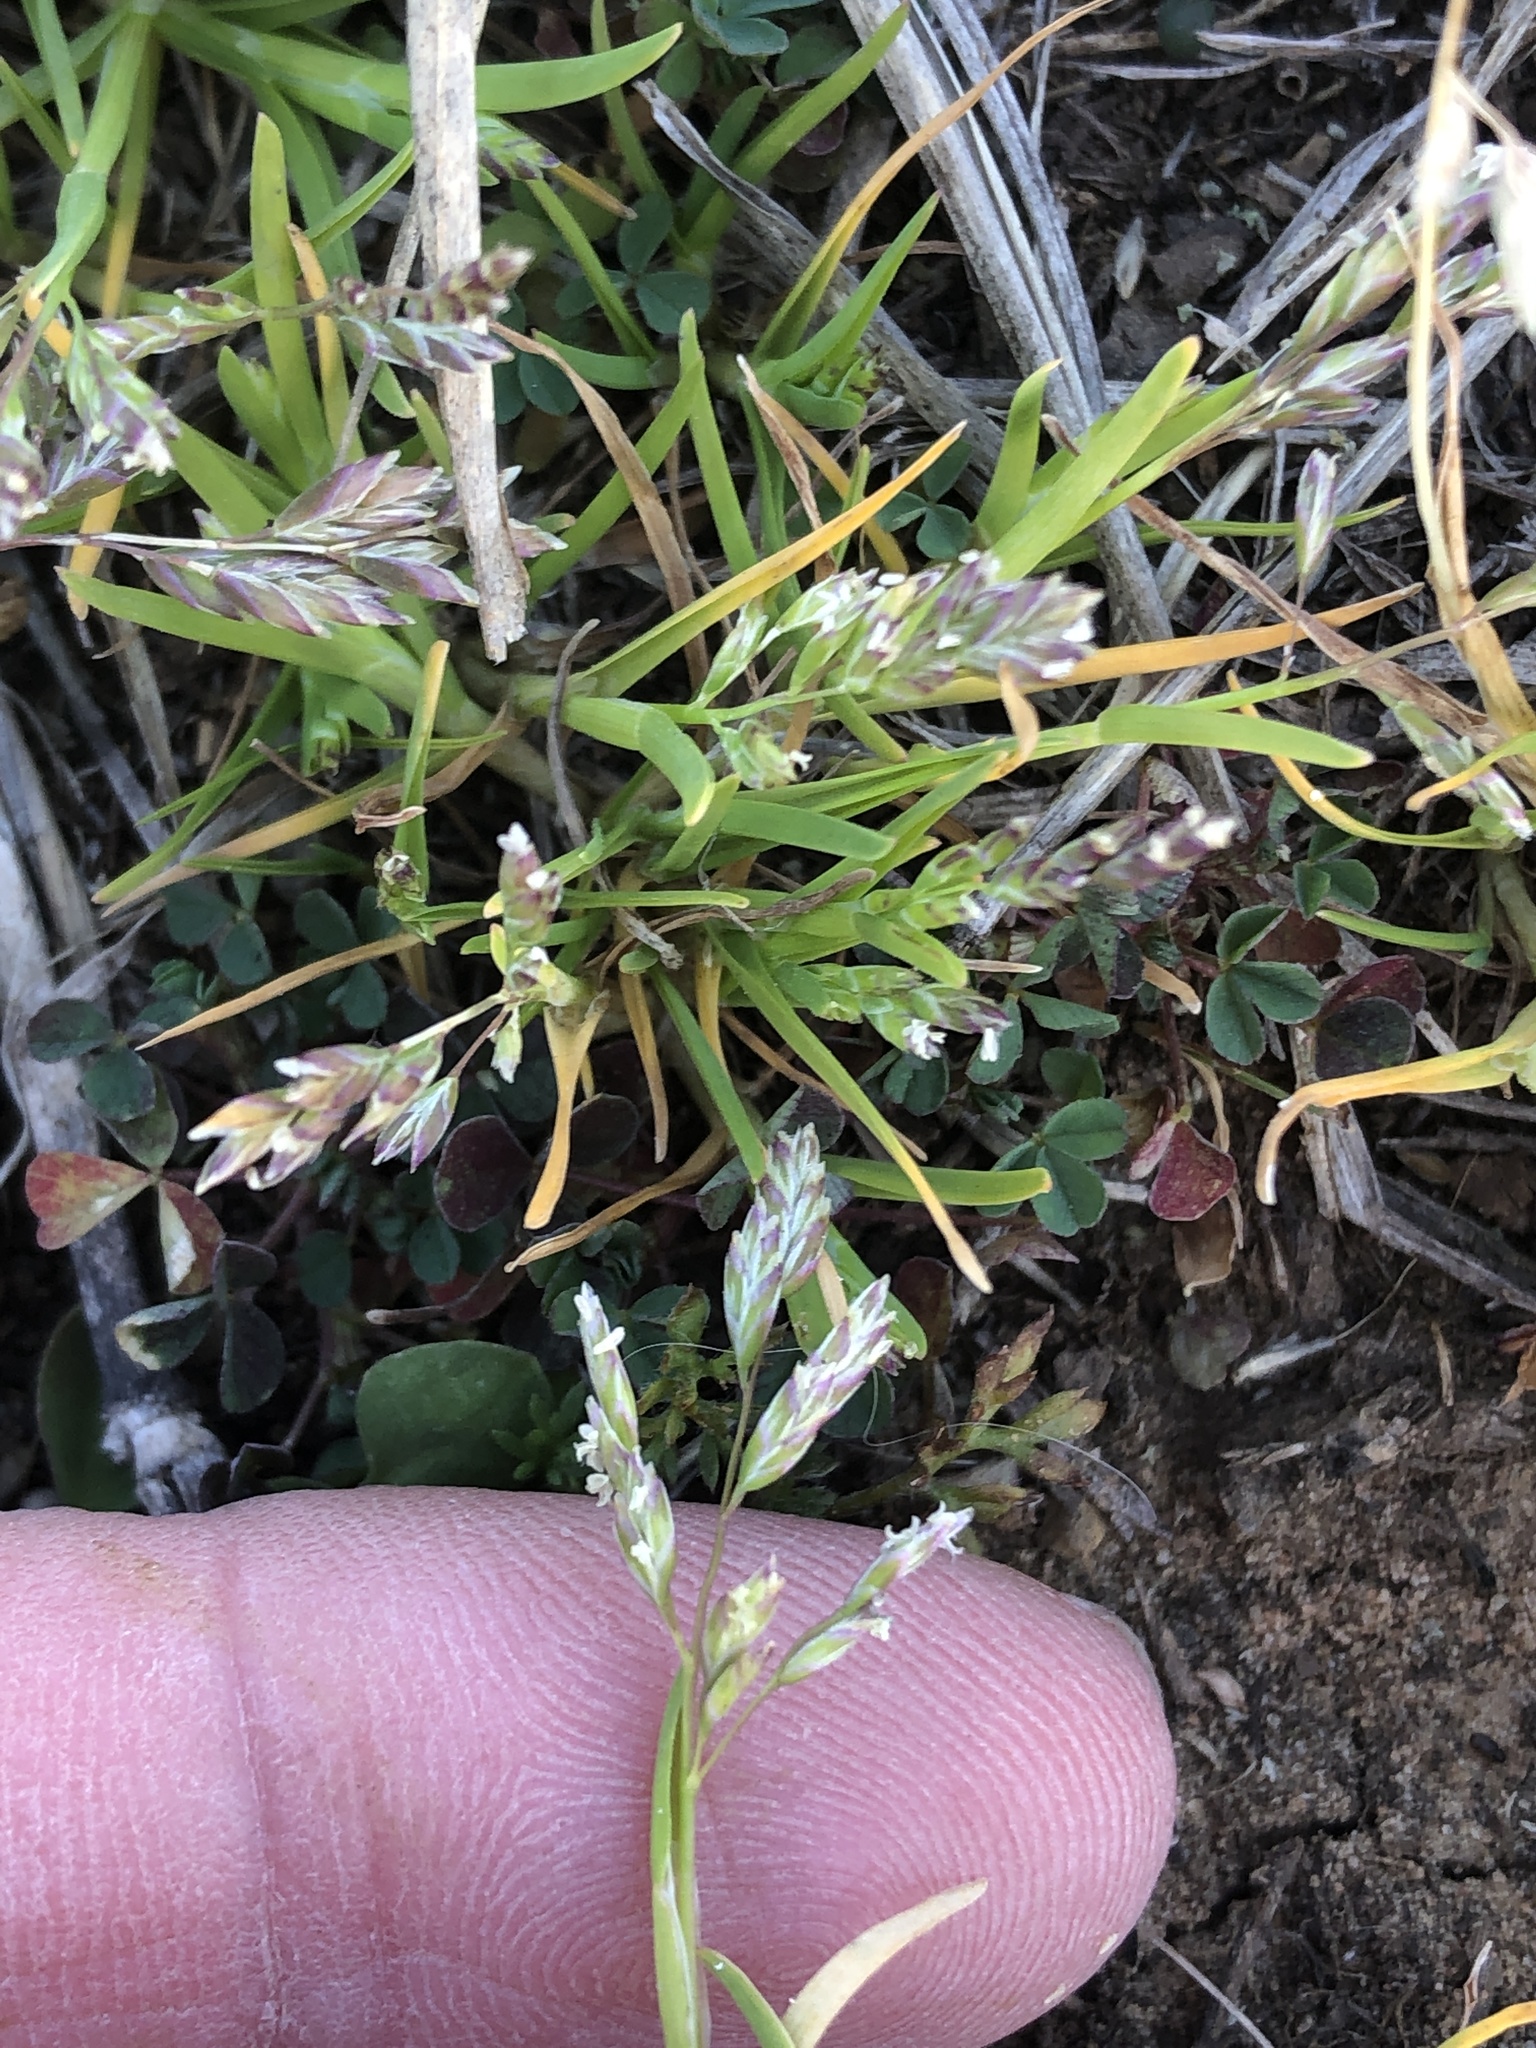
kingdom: Plantae
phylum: Tracheophyta
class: Liliopsida
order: Poales
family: Poaceae
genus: Poa
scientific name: Poa annua
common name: Annual bluegrass
